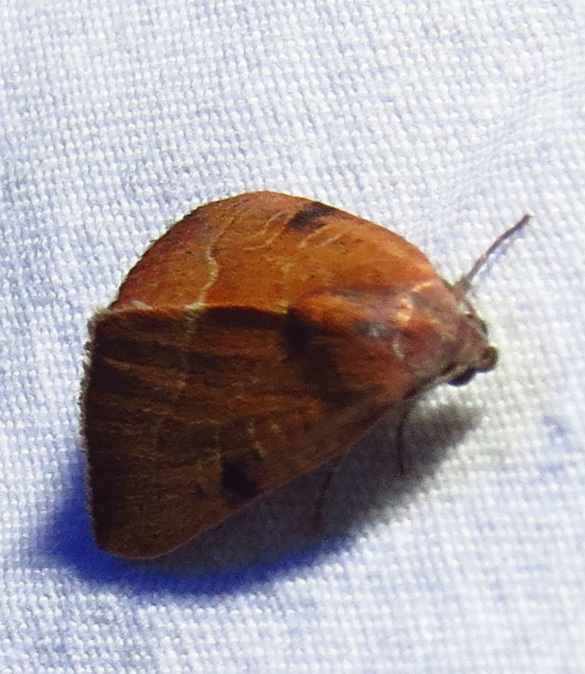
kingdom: Animalia
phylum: Arthropoda
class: Insecta
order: Lepidoptera
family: Noctuidae
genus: Galgula
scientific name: Galgula partita
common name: Wedgeling
